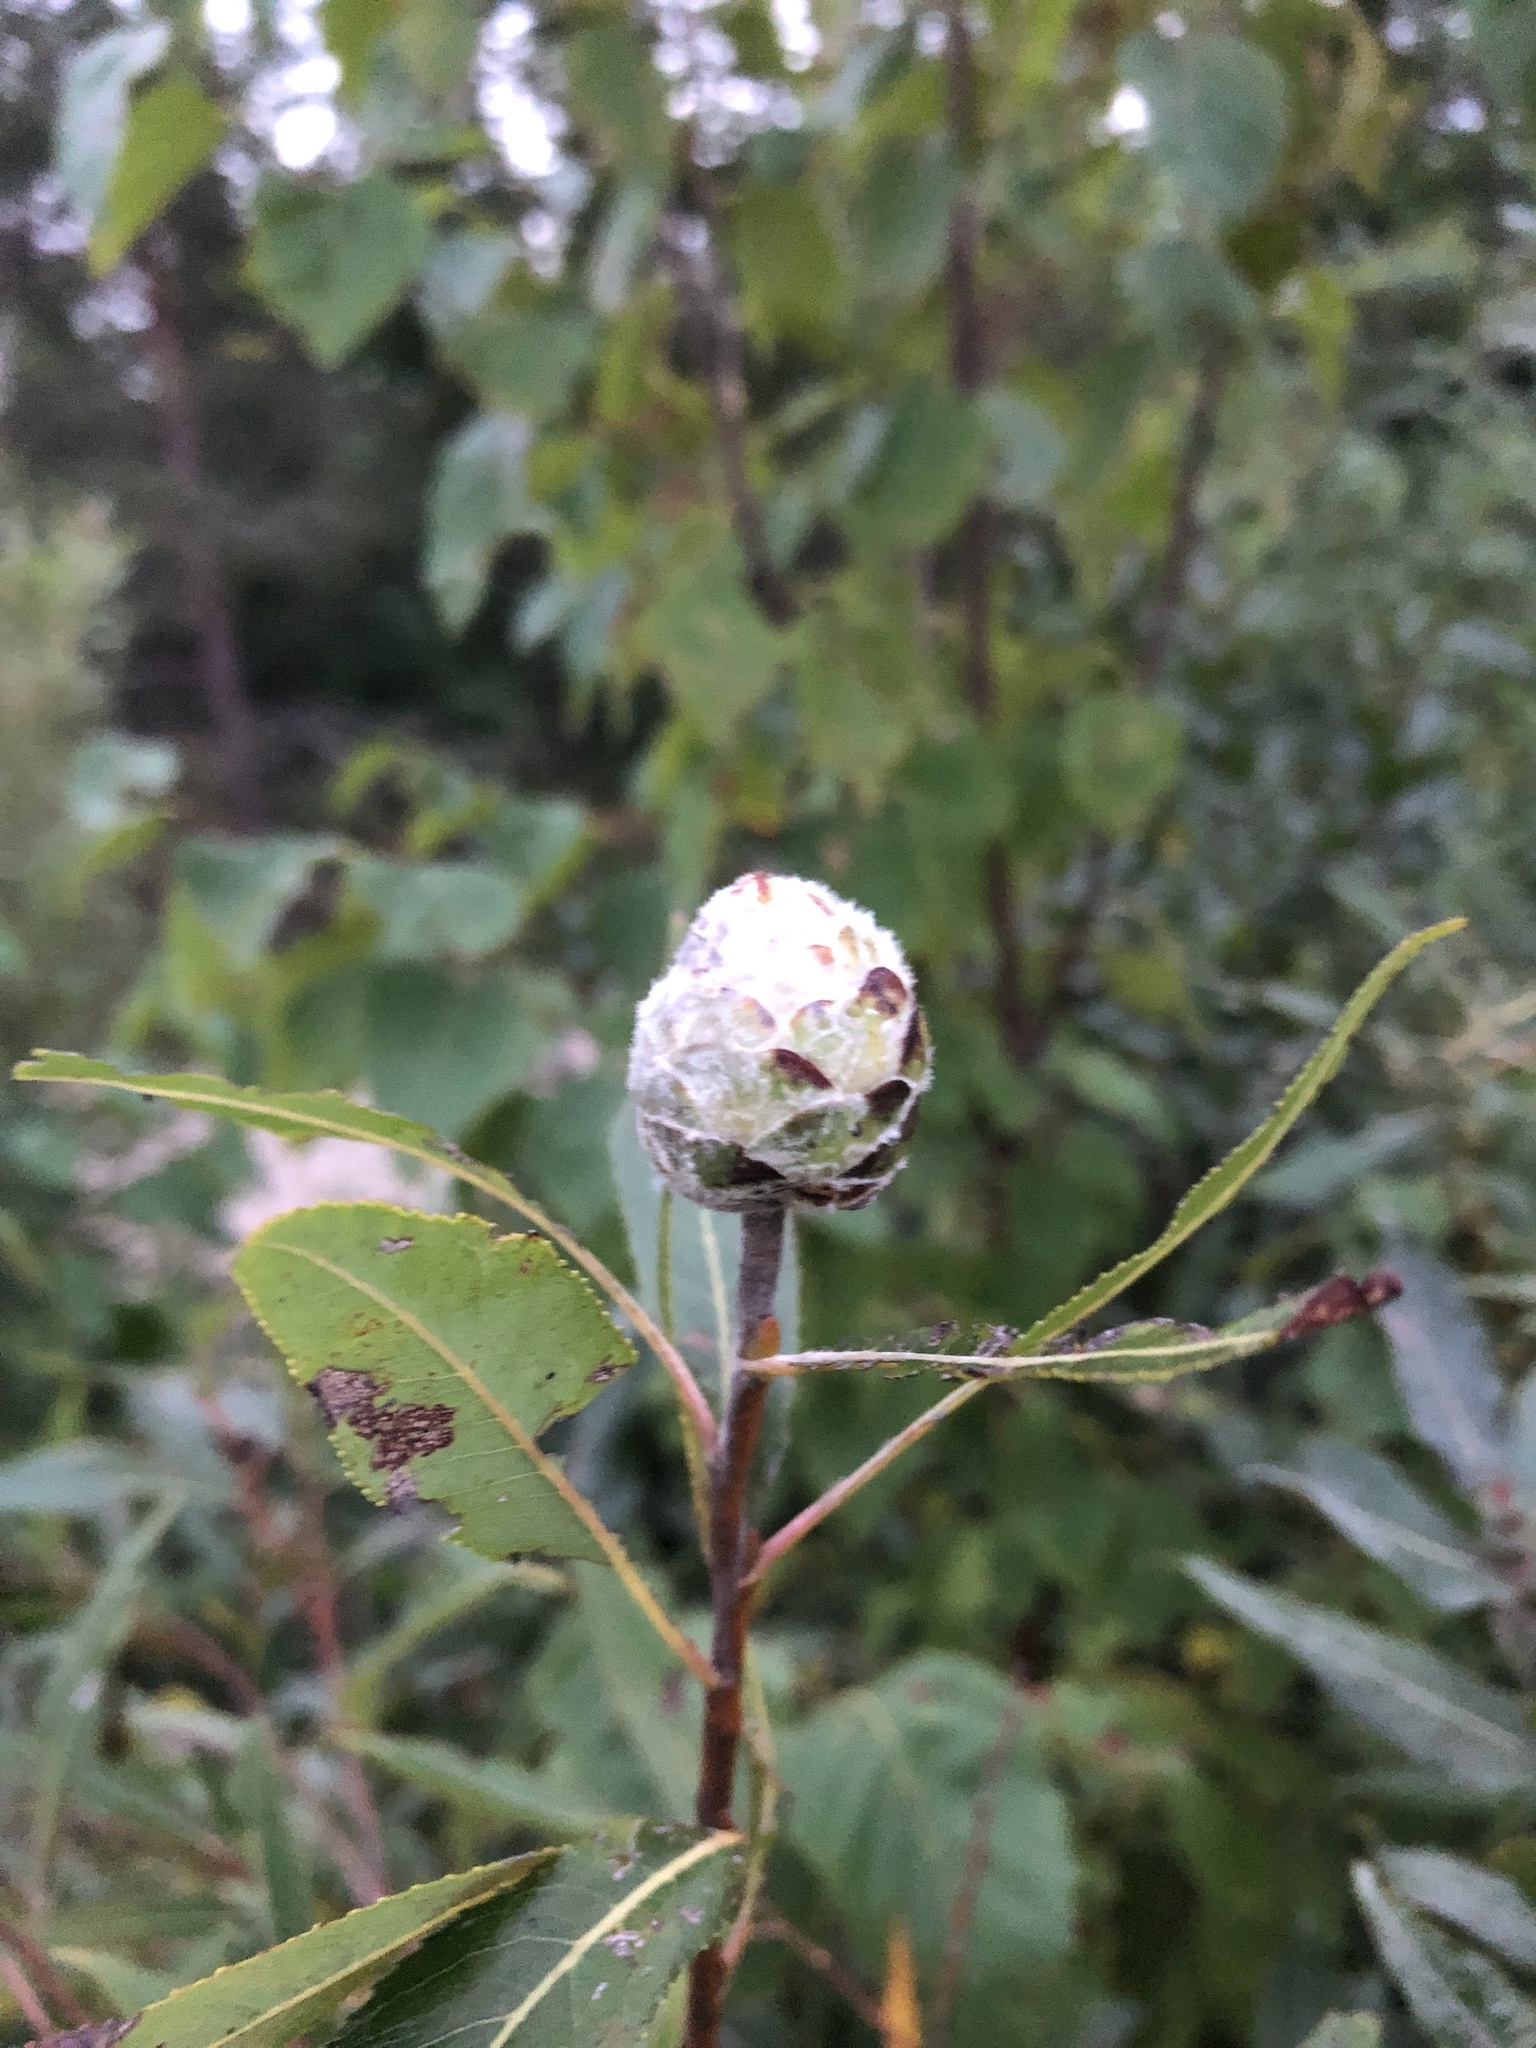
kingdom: Animalia
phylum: Arthropoda
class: Insecta
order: Diptera
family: Cecidomyiidae
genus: Rabdophaga
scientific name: Rabdophaga strobiloides
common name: Willow pinecone gall midge
